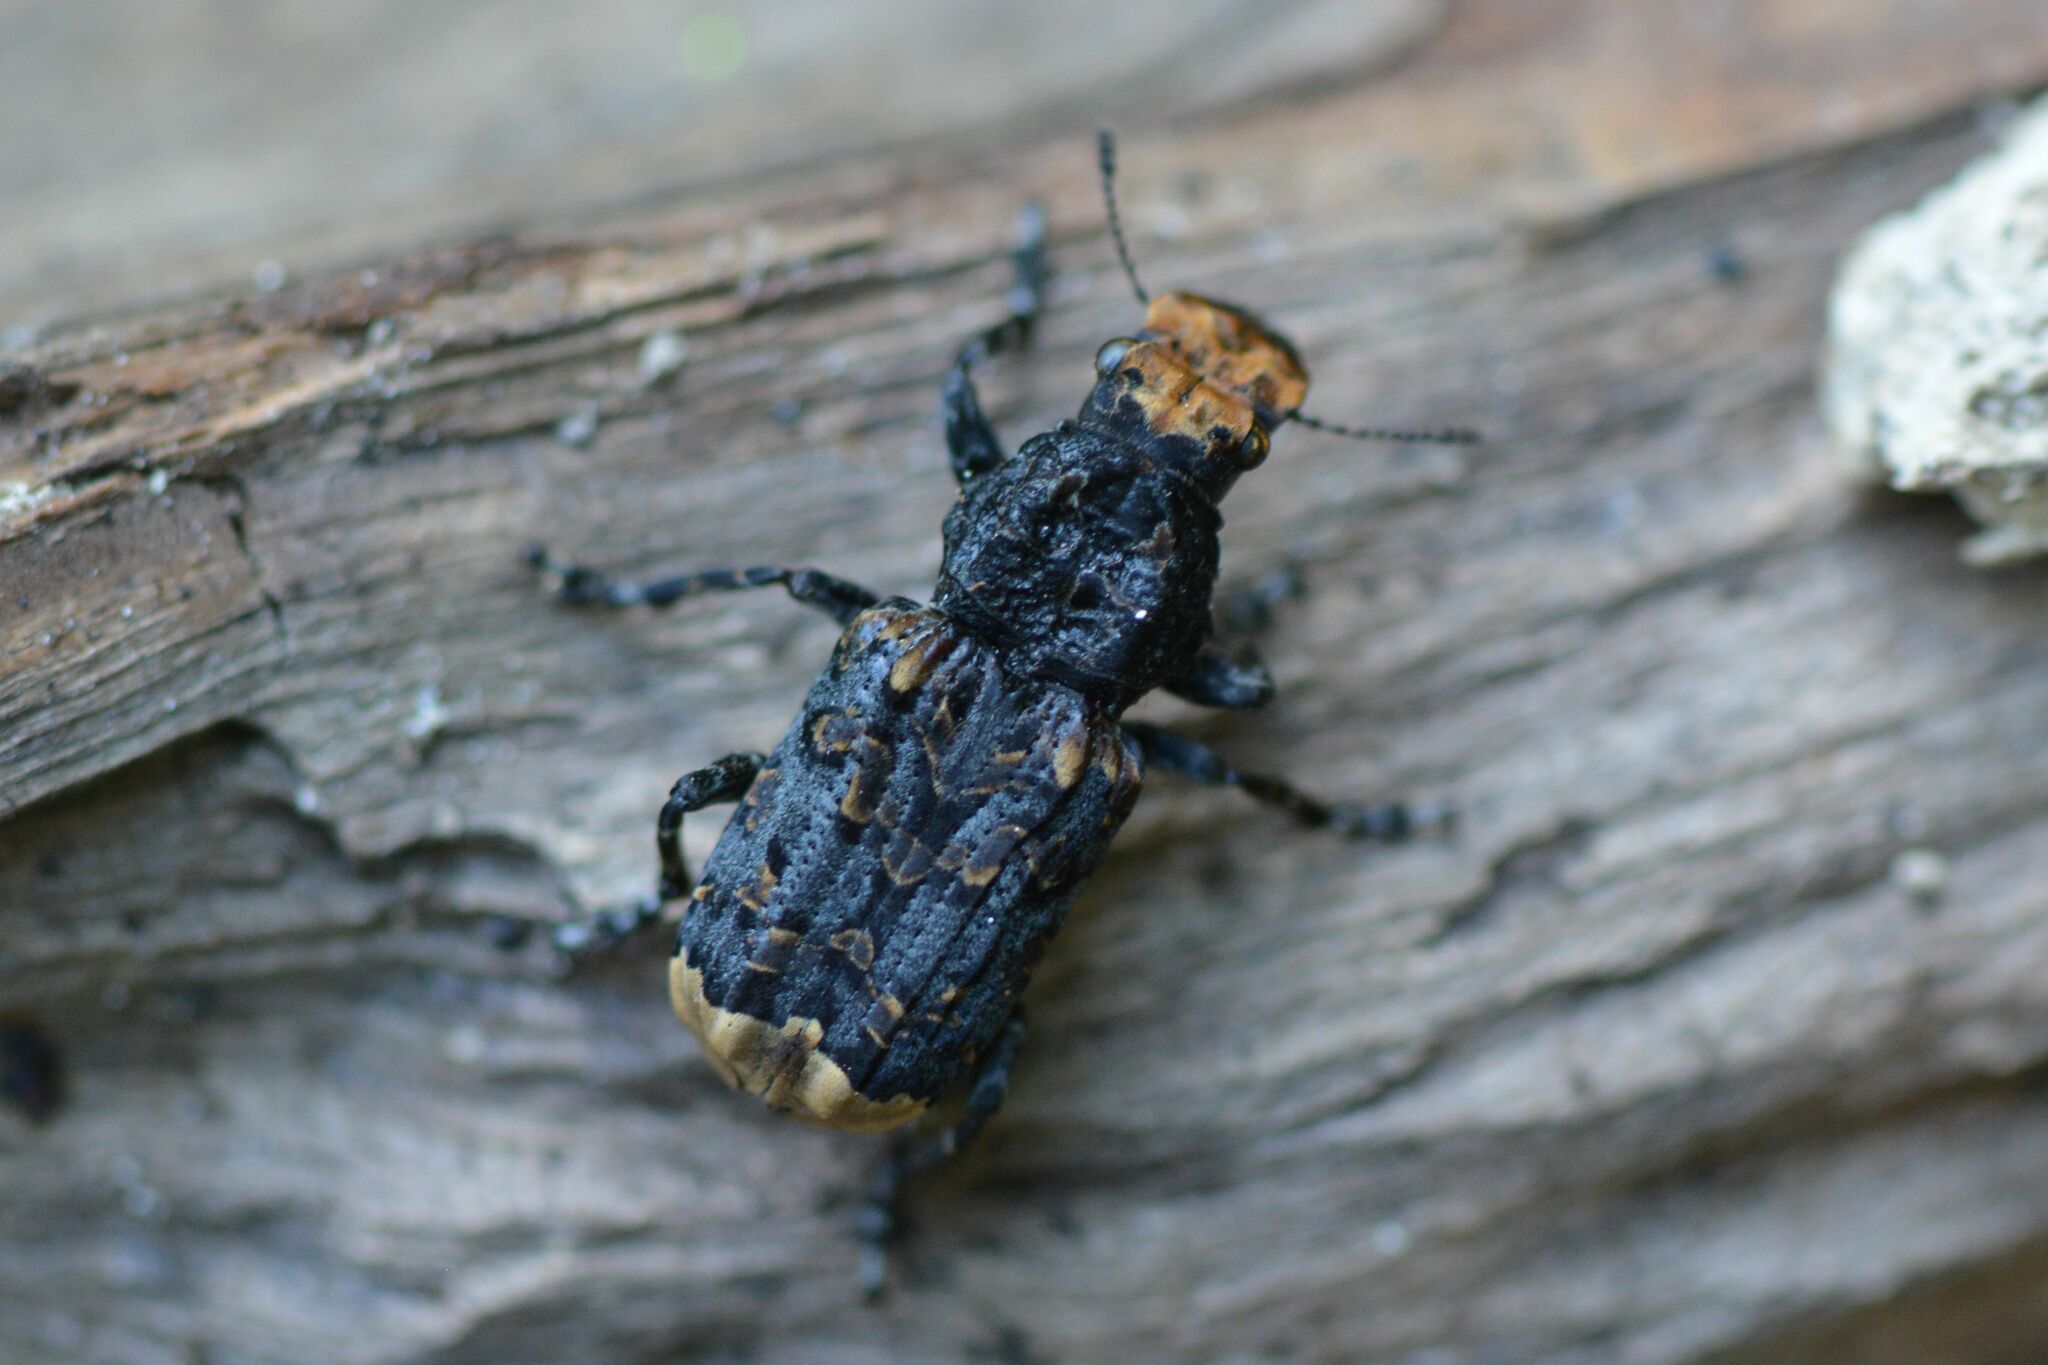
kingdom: Animalia
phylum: Arthropoda
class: Insecta
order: Coleoptera
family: Anthribidae
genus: Platyrhinus
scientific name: Platyrhinus resinosus
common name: Cramp-ball fungus weevil
